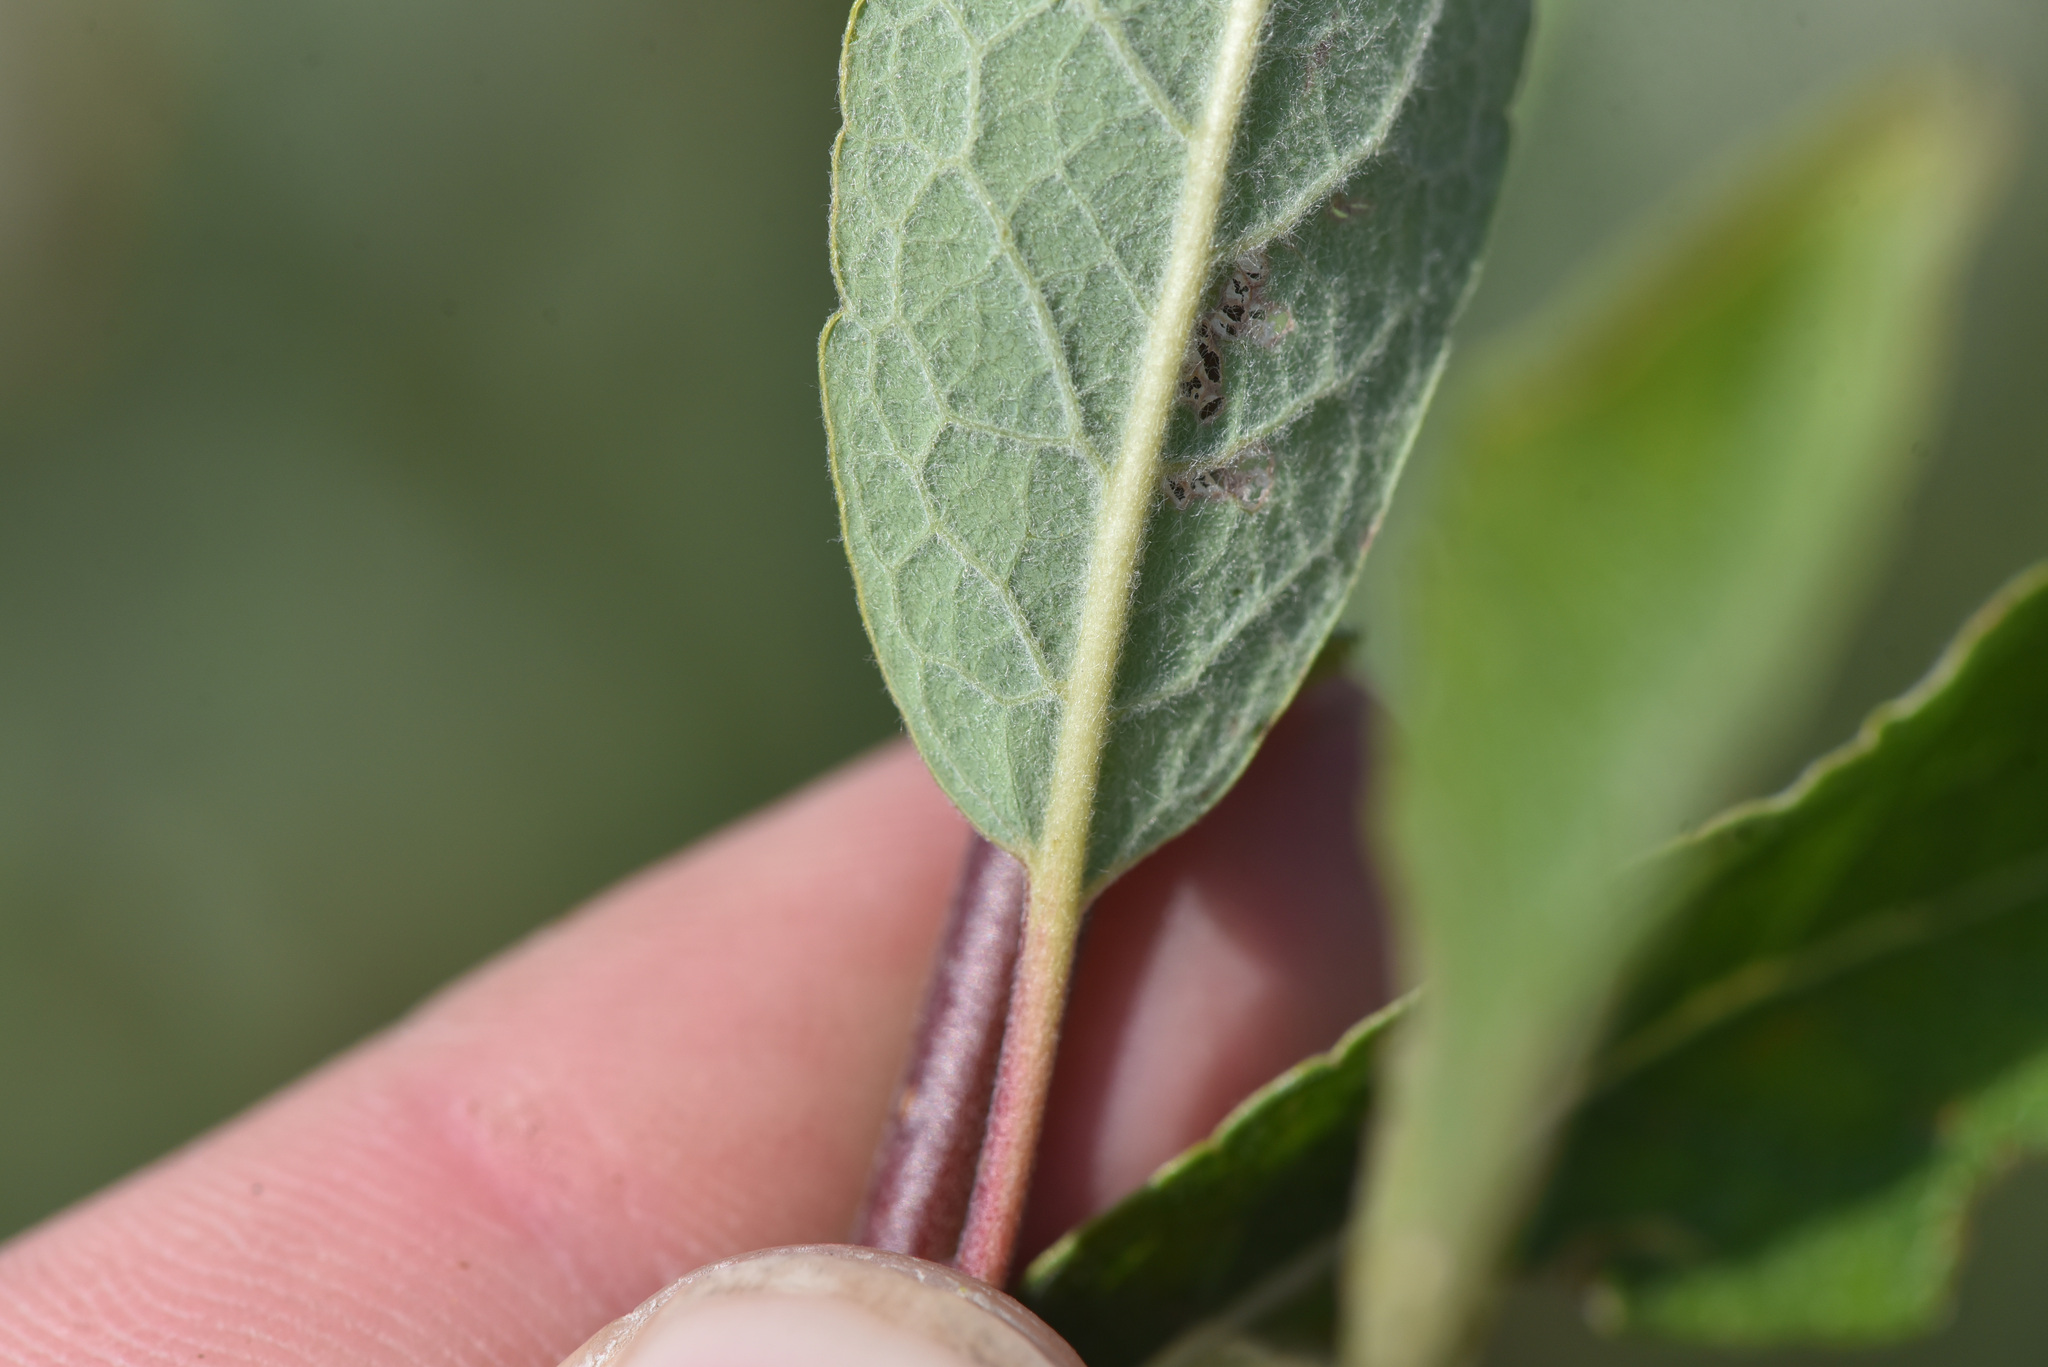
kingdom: Plantae
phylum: Tracheophyta
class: Magnoliopsida
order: Malpighiales
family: Salicaceae
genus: Salix
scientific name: Salix bebbiana
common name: Bebb's willow
